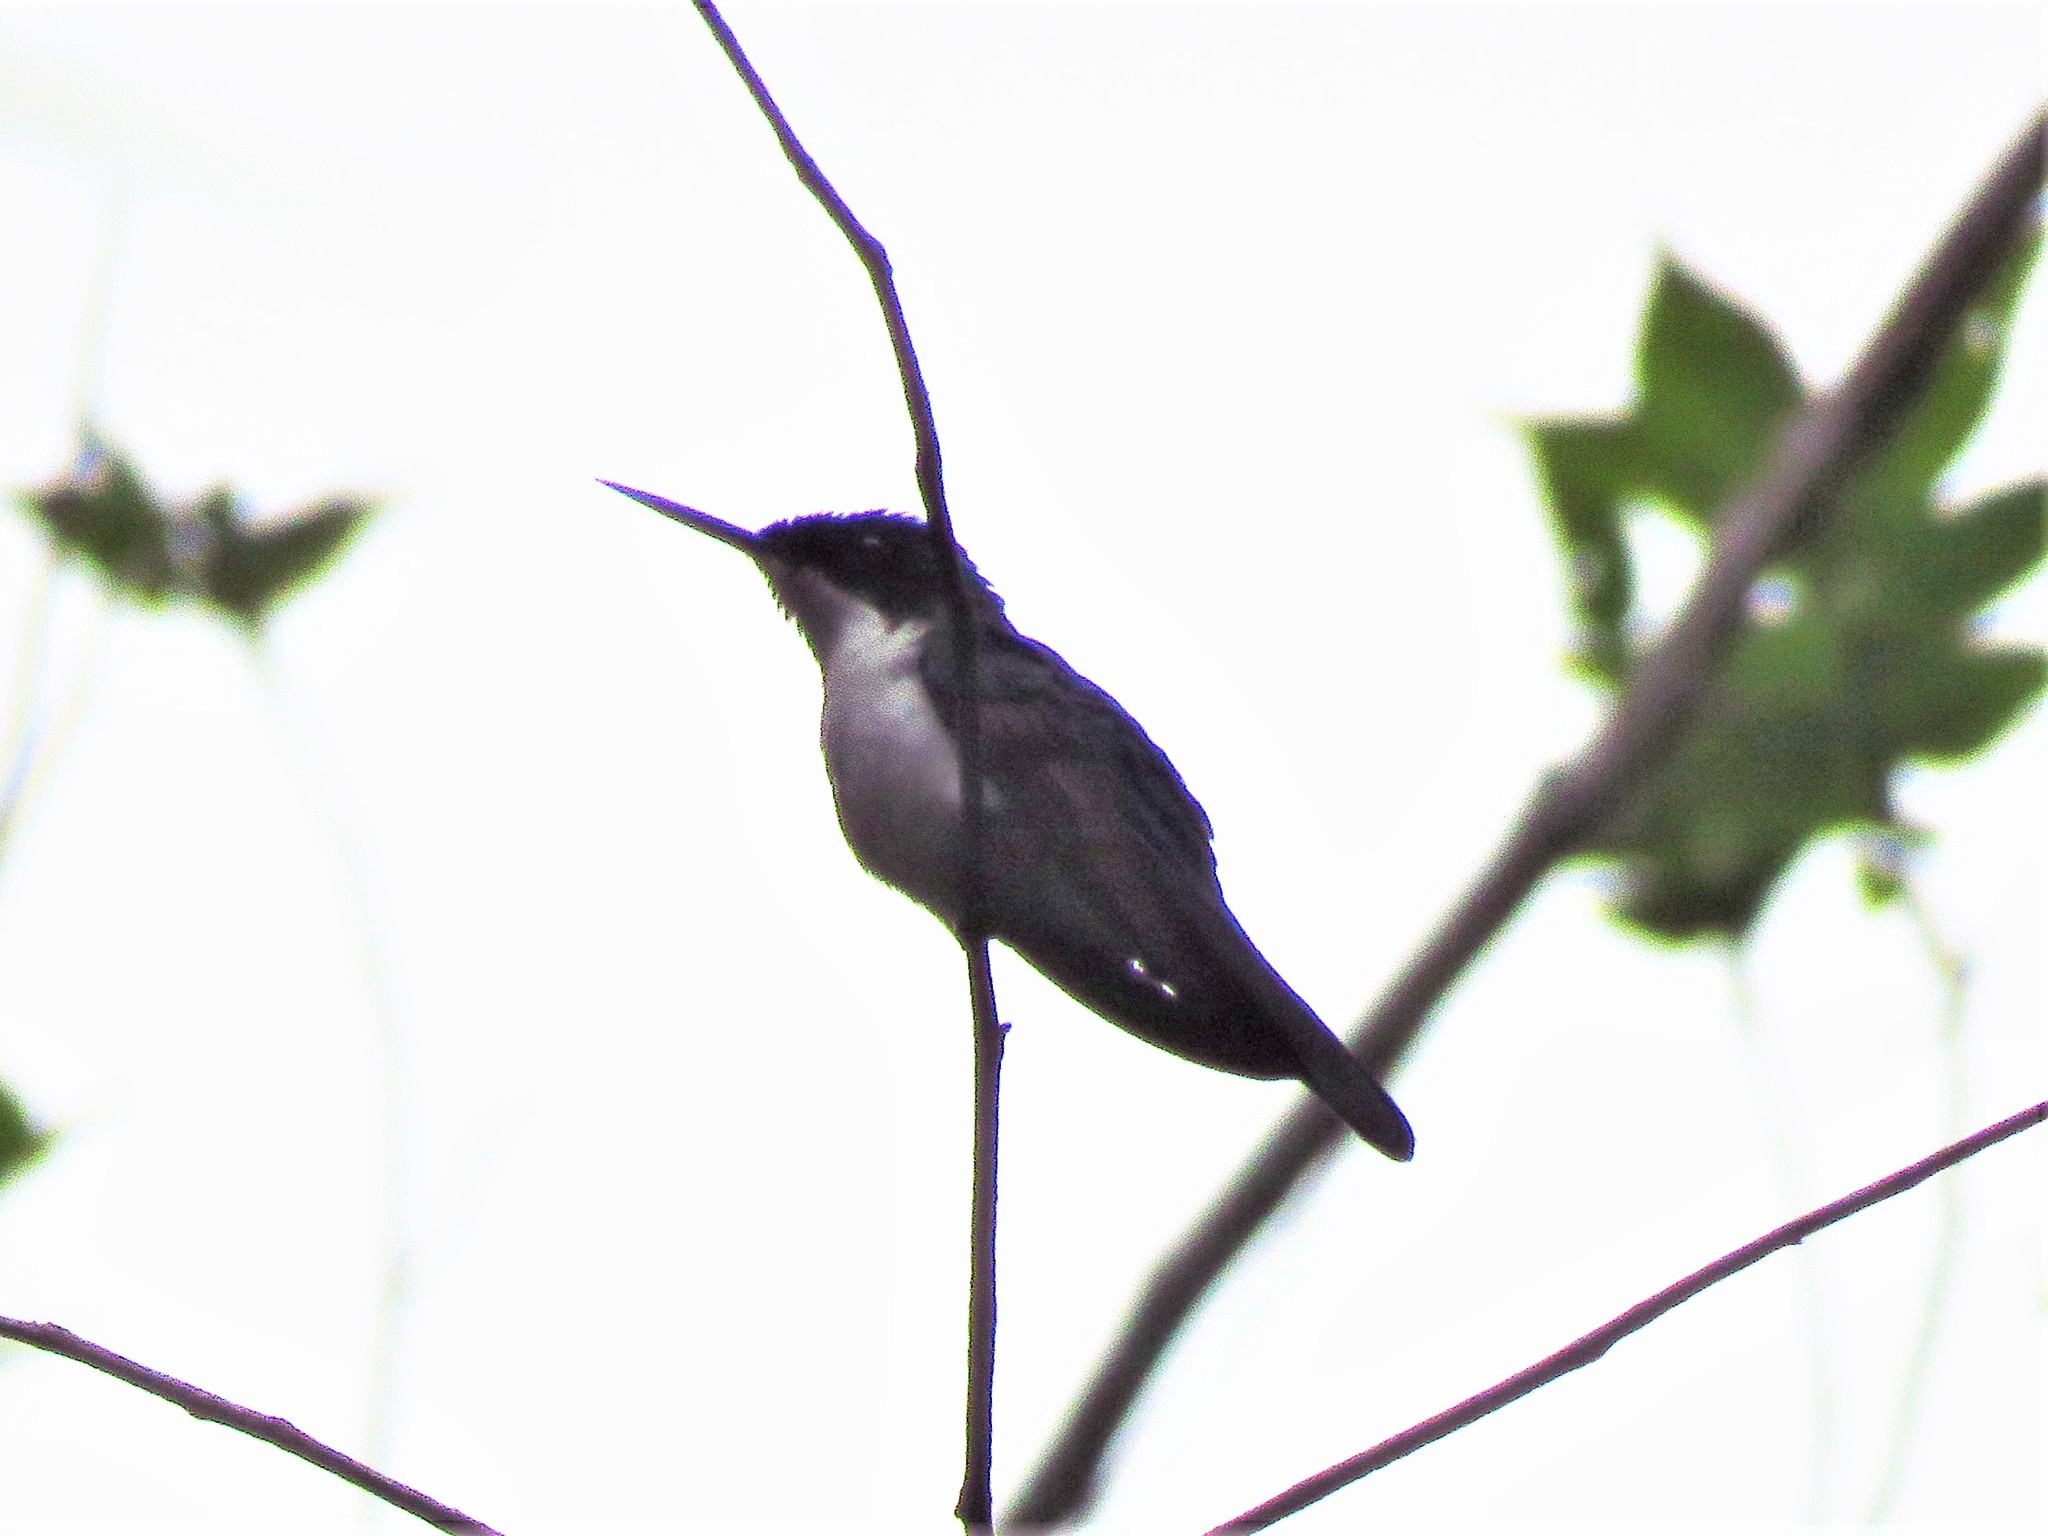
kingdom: Animalia
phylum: Chordata
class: Aves
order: Apodiformes
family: Trochilidae
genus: Heliothryx
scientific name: Heliothryx barroti
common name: Purple-crowned fairy
